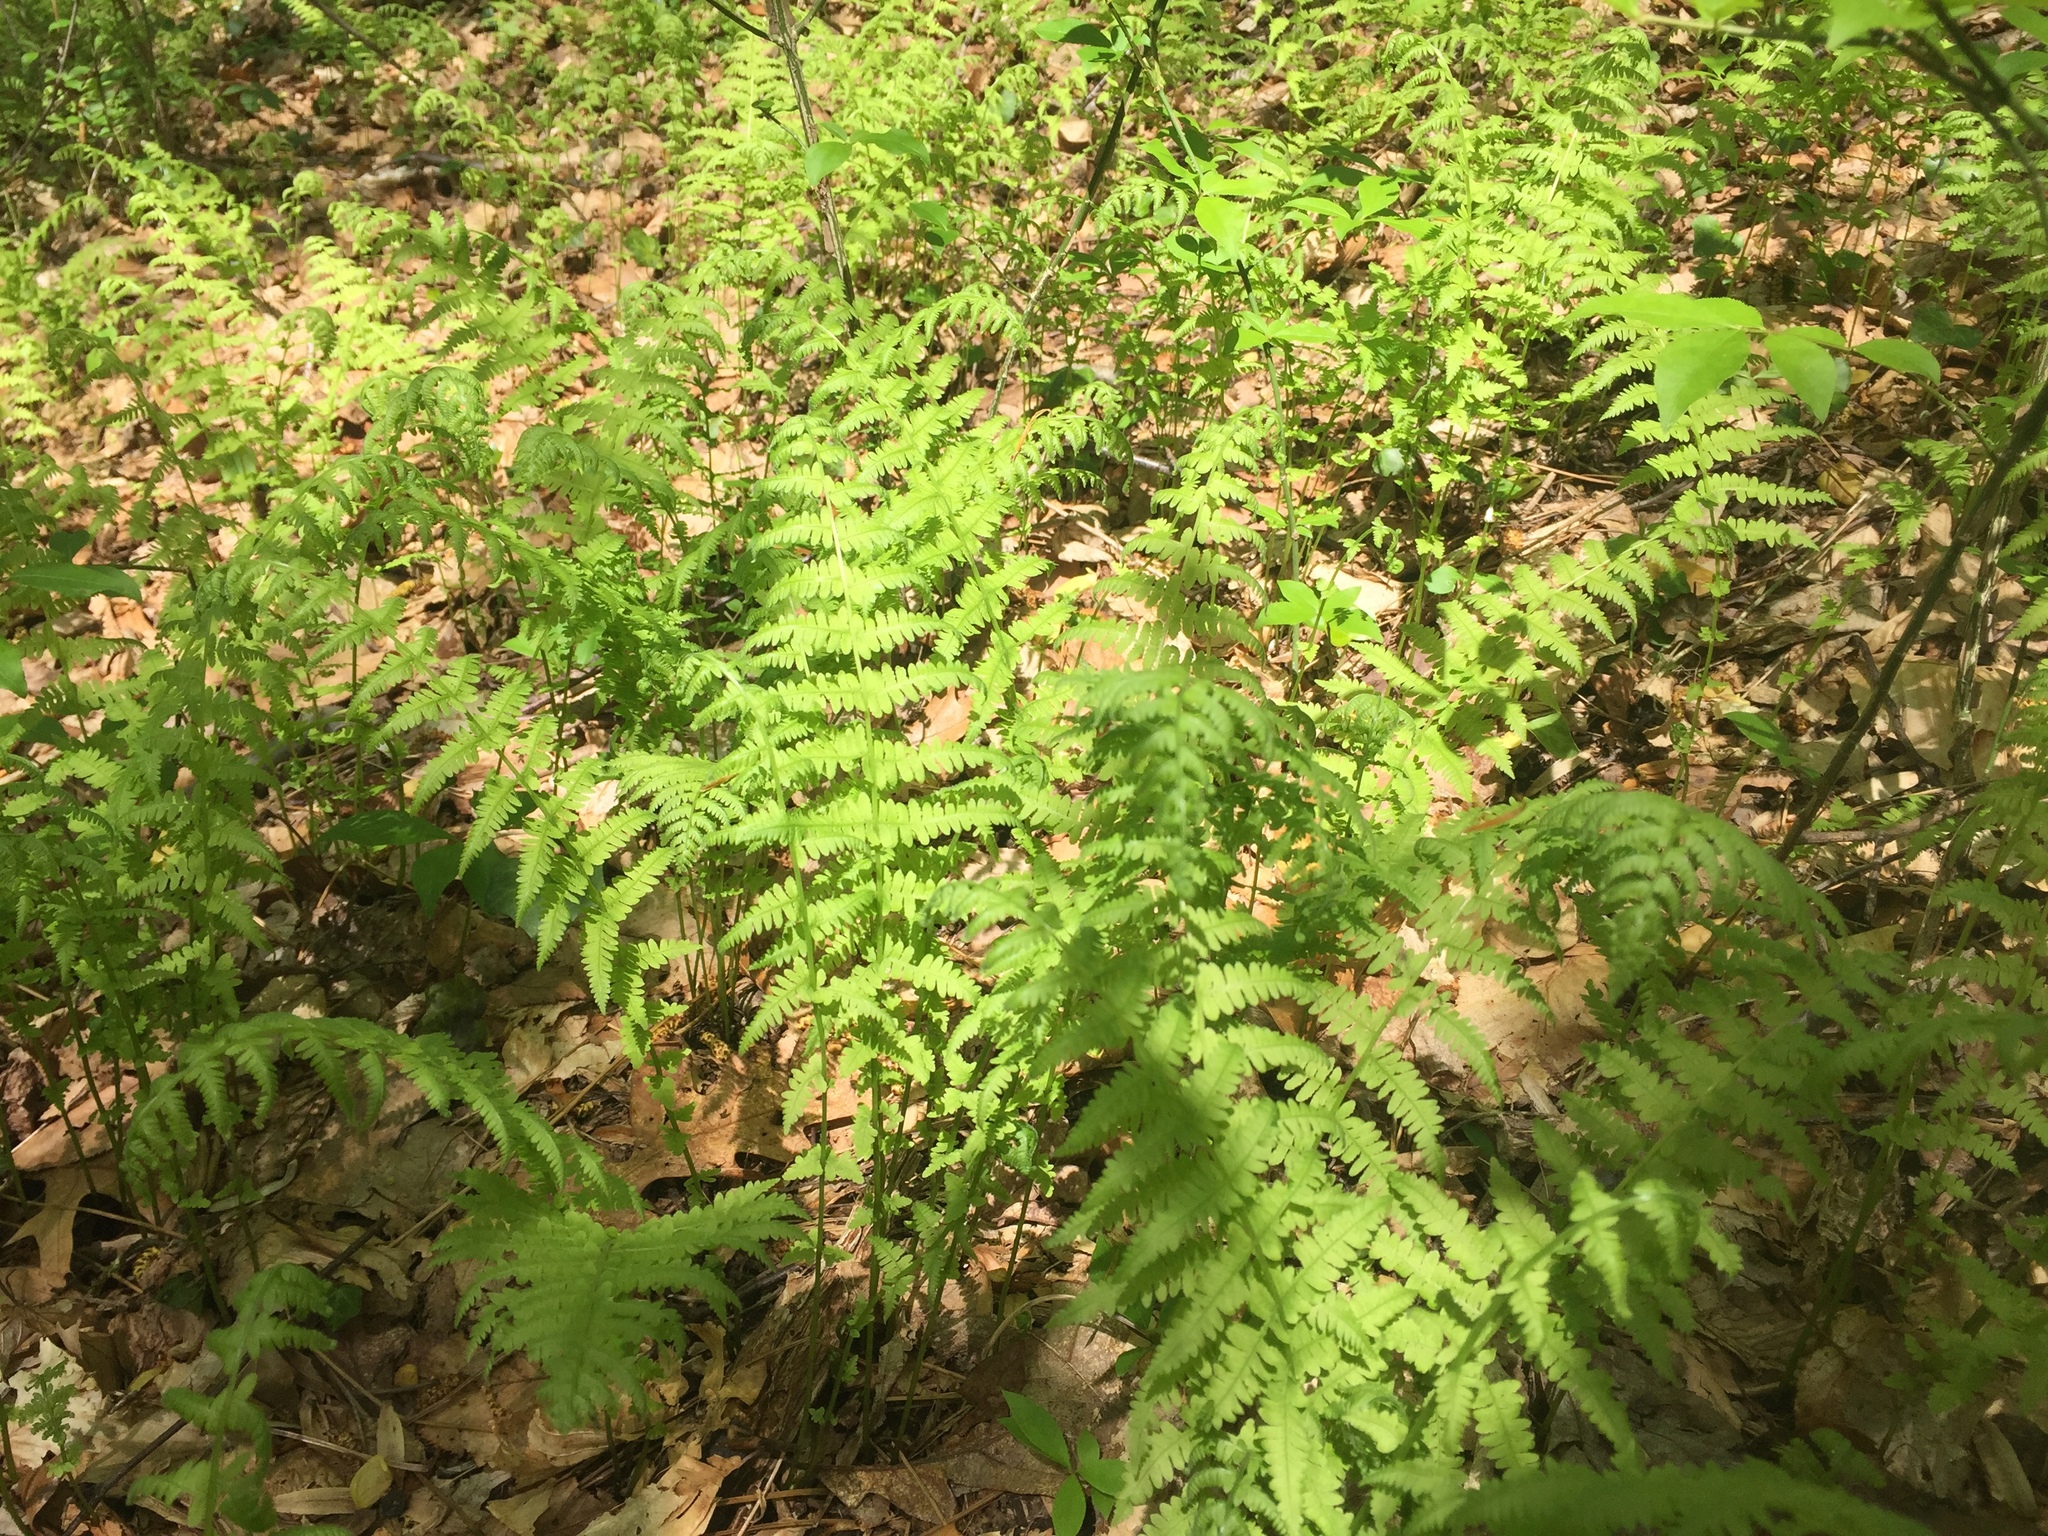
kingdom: Plantae
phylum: Tracheophyta
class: Polypodiopsida
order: Polypodiales
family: Thelypteridaceae
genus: Amauropelta
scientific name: Amauropelta noveboracensis
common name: New york fern
